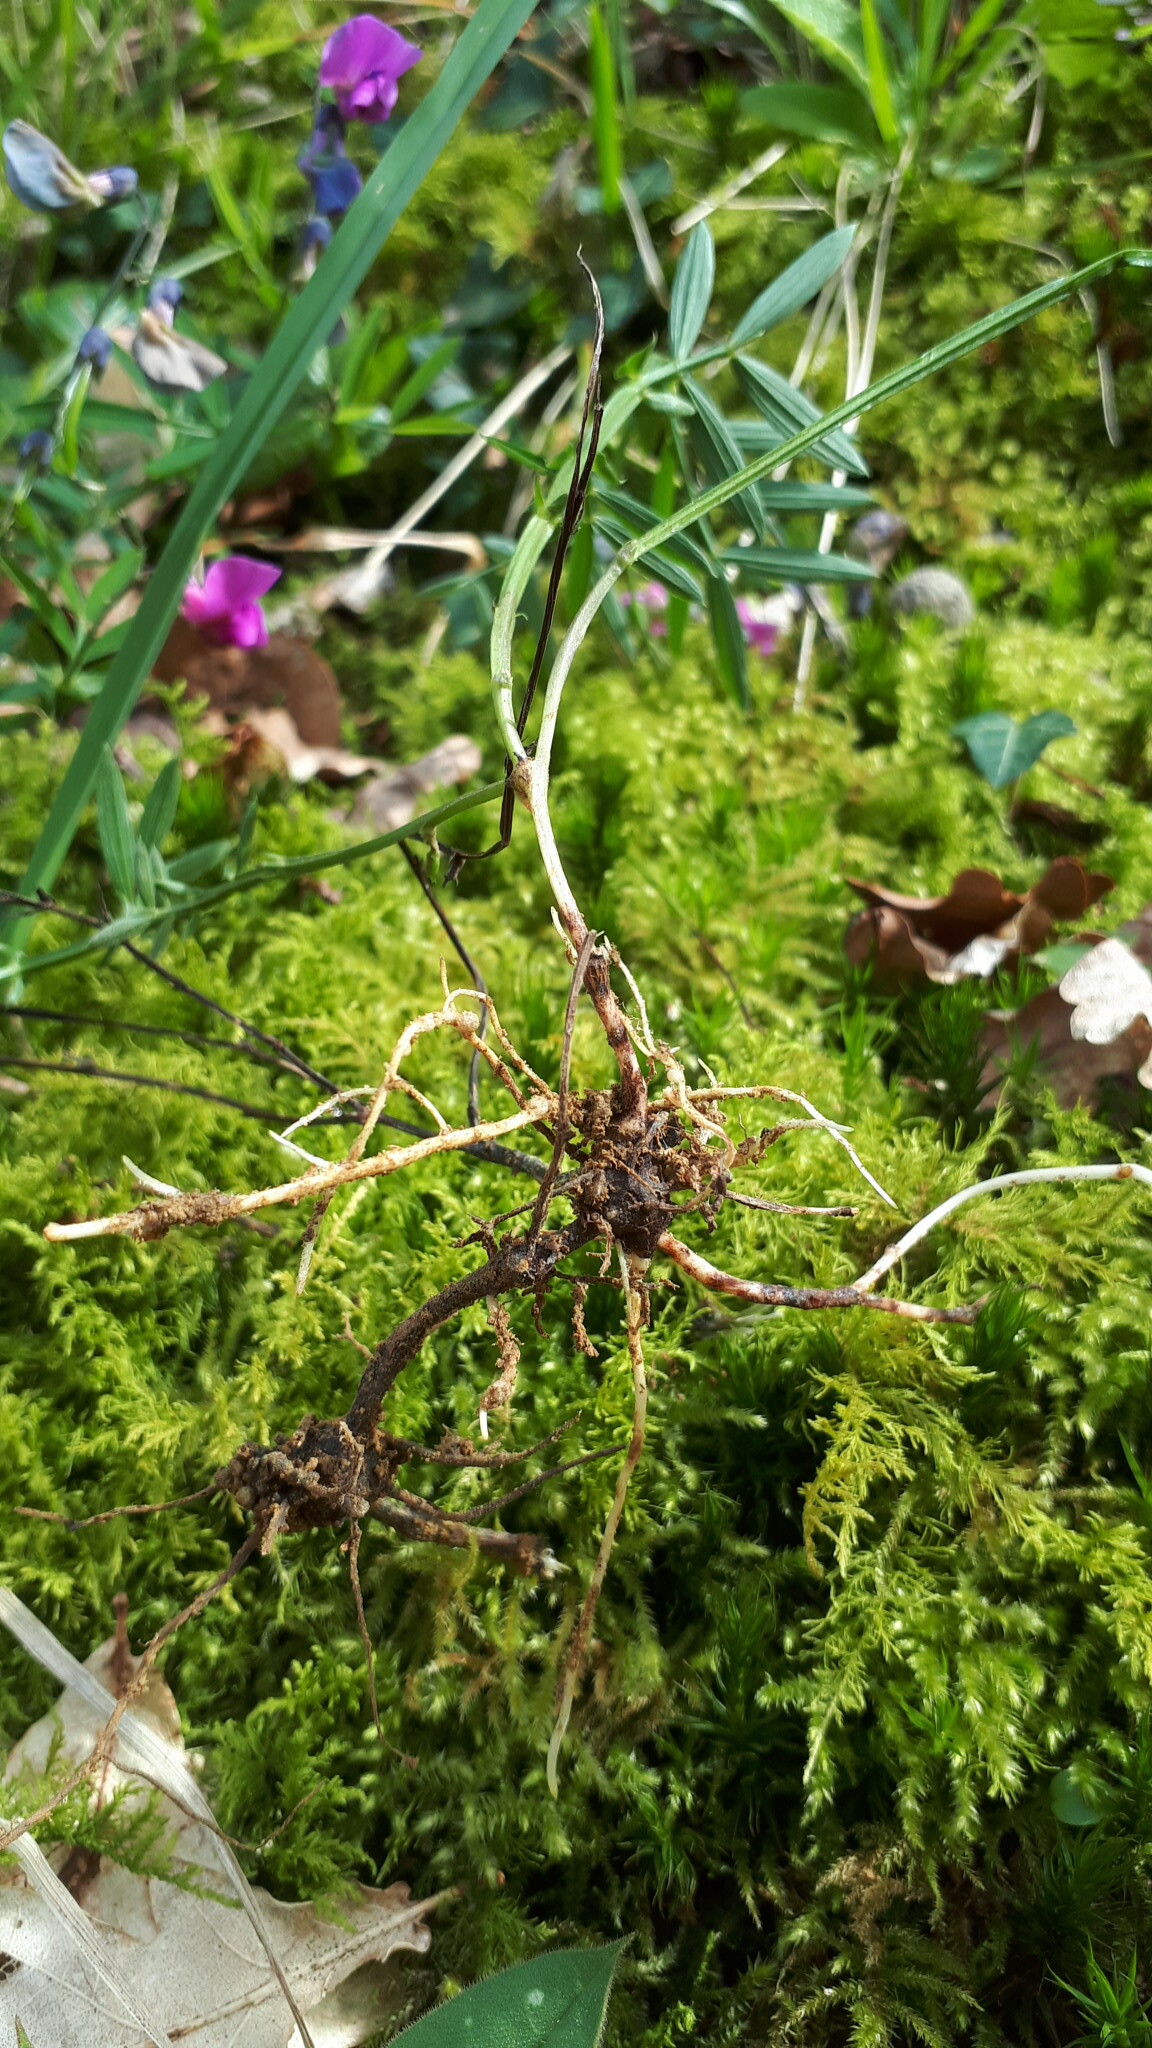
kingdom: Plantae
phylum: Tracheophyta
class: Magnoliopsida
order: Fabales
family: Fabaceae
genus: Lathyrus
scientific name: Lathyrus linifolius
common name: Bitter-vetch
